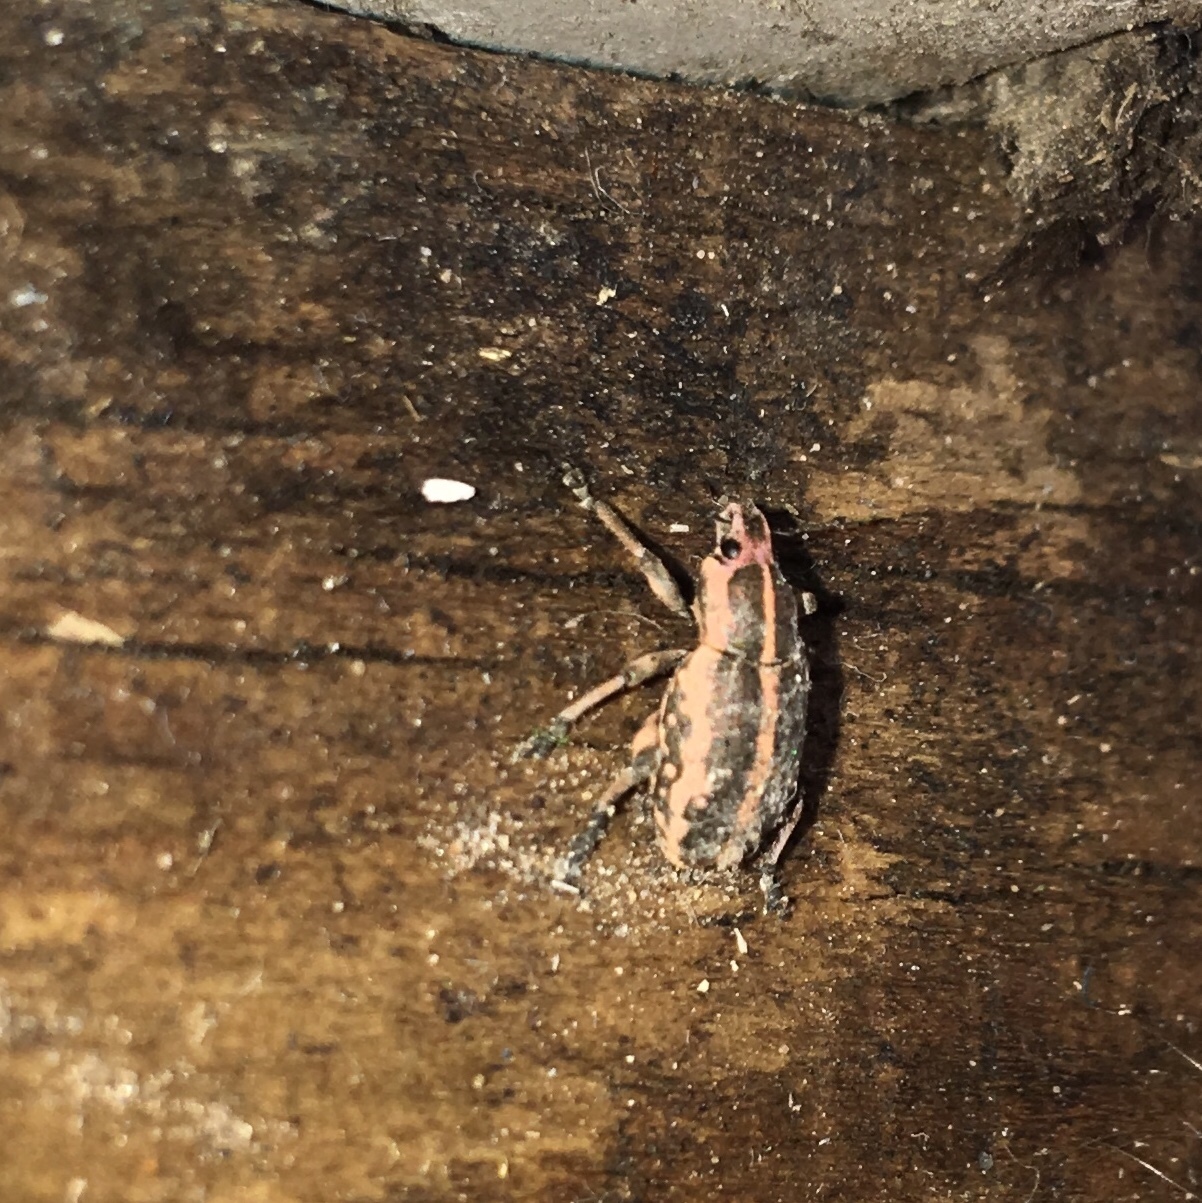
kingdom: Animalia
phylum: Arthropoda
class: Insecta
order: Coleoptera
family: Curculionidae
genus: Eudiagogus
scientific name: Eudiagogus rosenschoeldi
